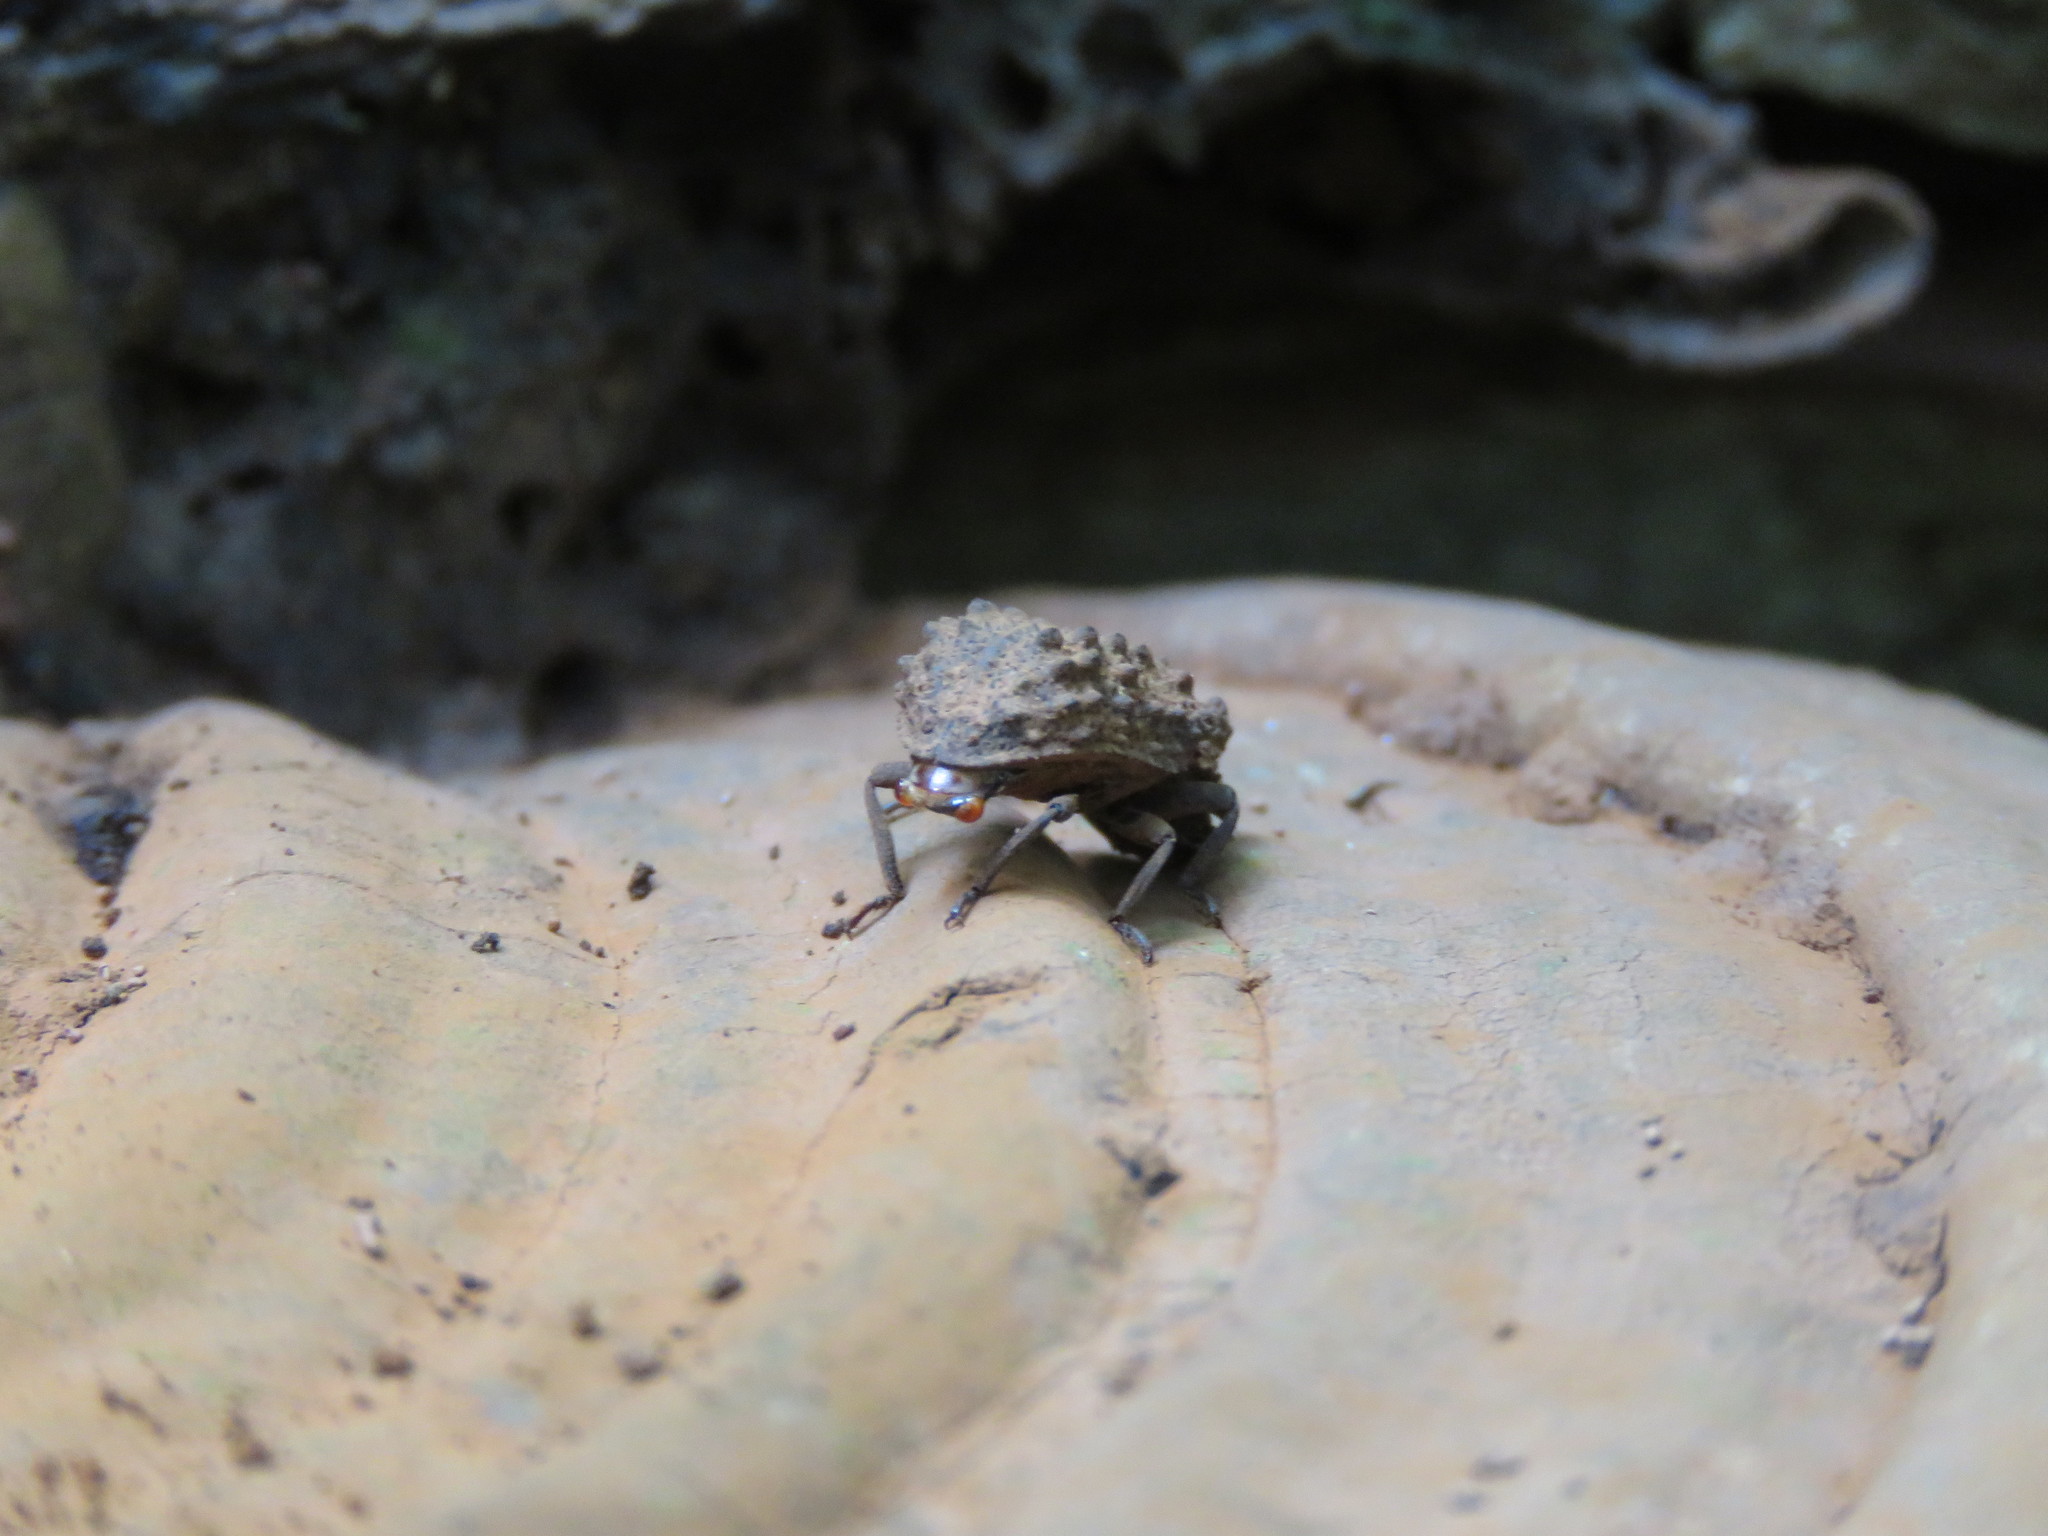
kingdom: Animalia
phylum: Arthropoda
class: Insecta
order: Coleoptera
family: Tenebrionidae
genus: Gnatocerus
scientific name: Gnatocerus cornutus
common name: Broad-horned flour beetle
